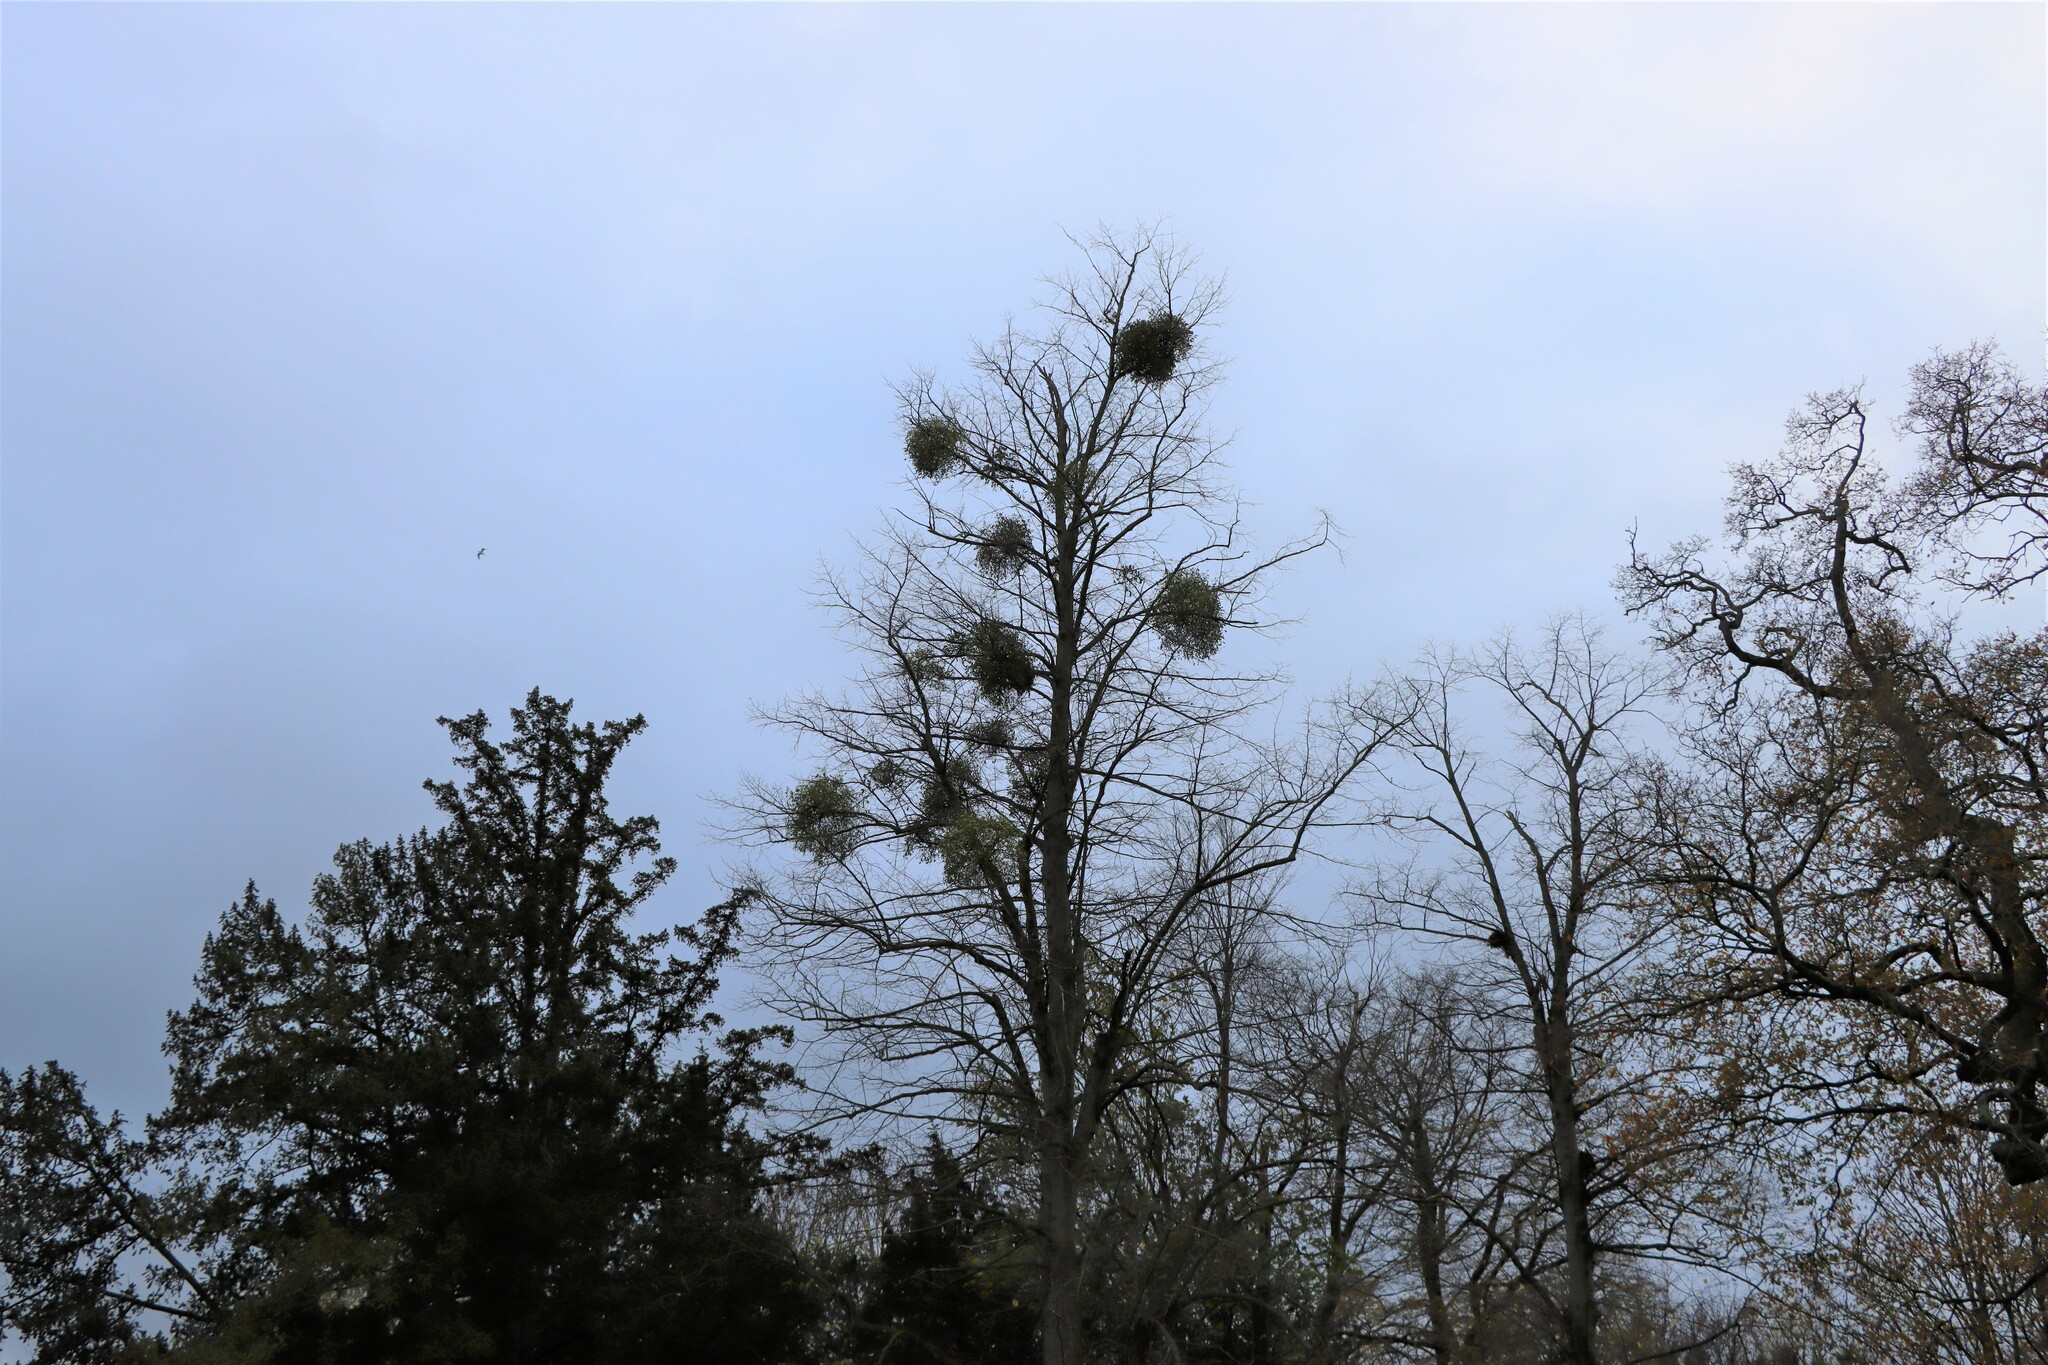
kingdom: Plantae
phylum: Tracheophyta
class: Magnoliopsida
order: Santalales
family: Viscaceae
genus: Viscum
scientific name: Viscum album
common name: Mistletoe
